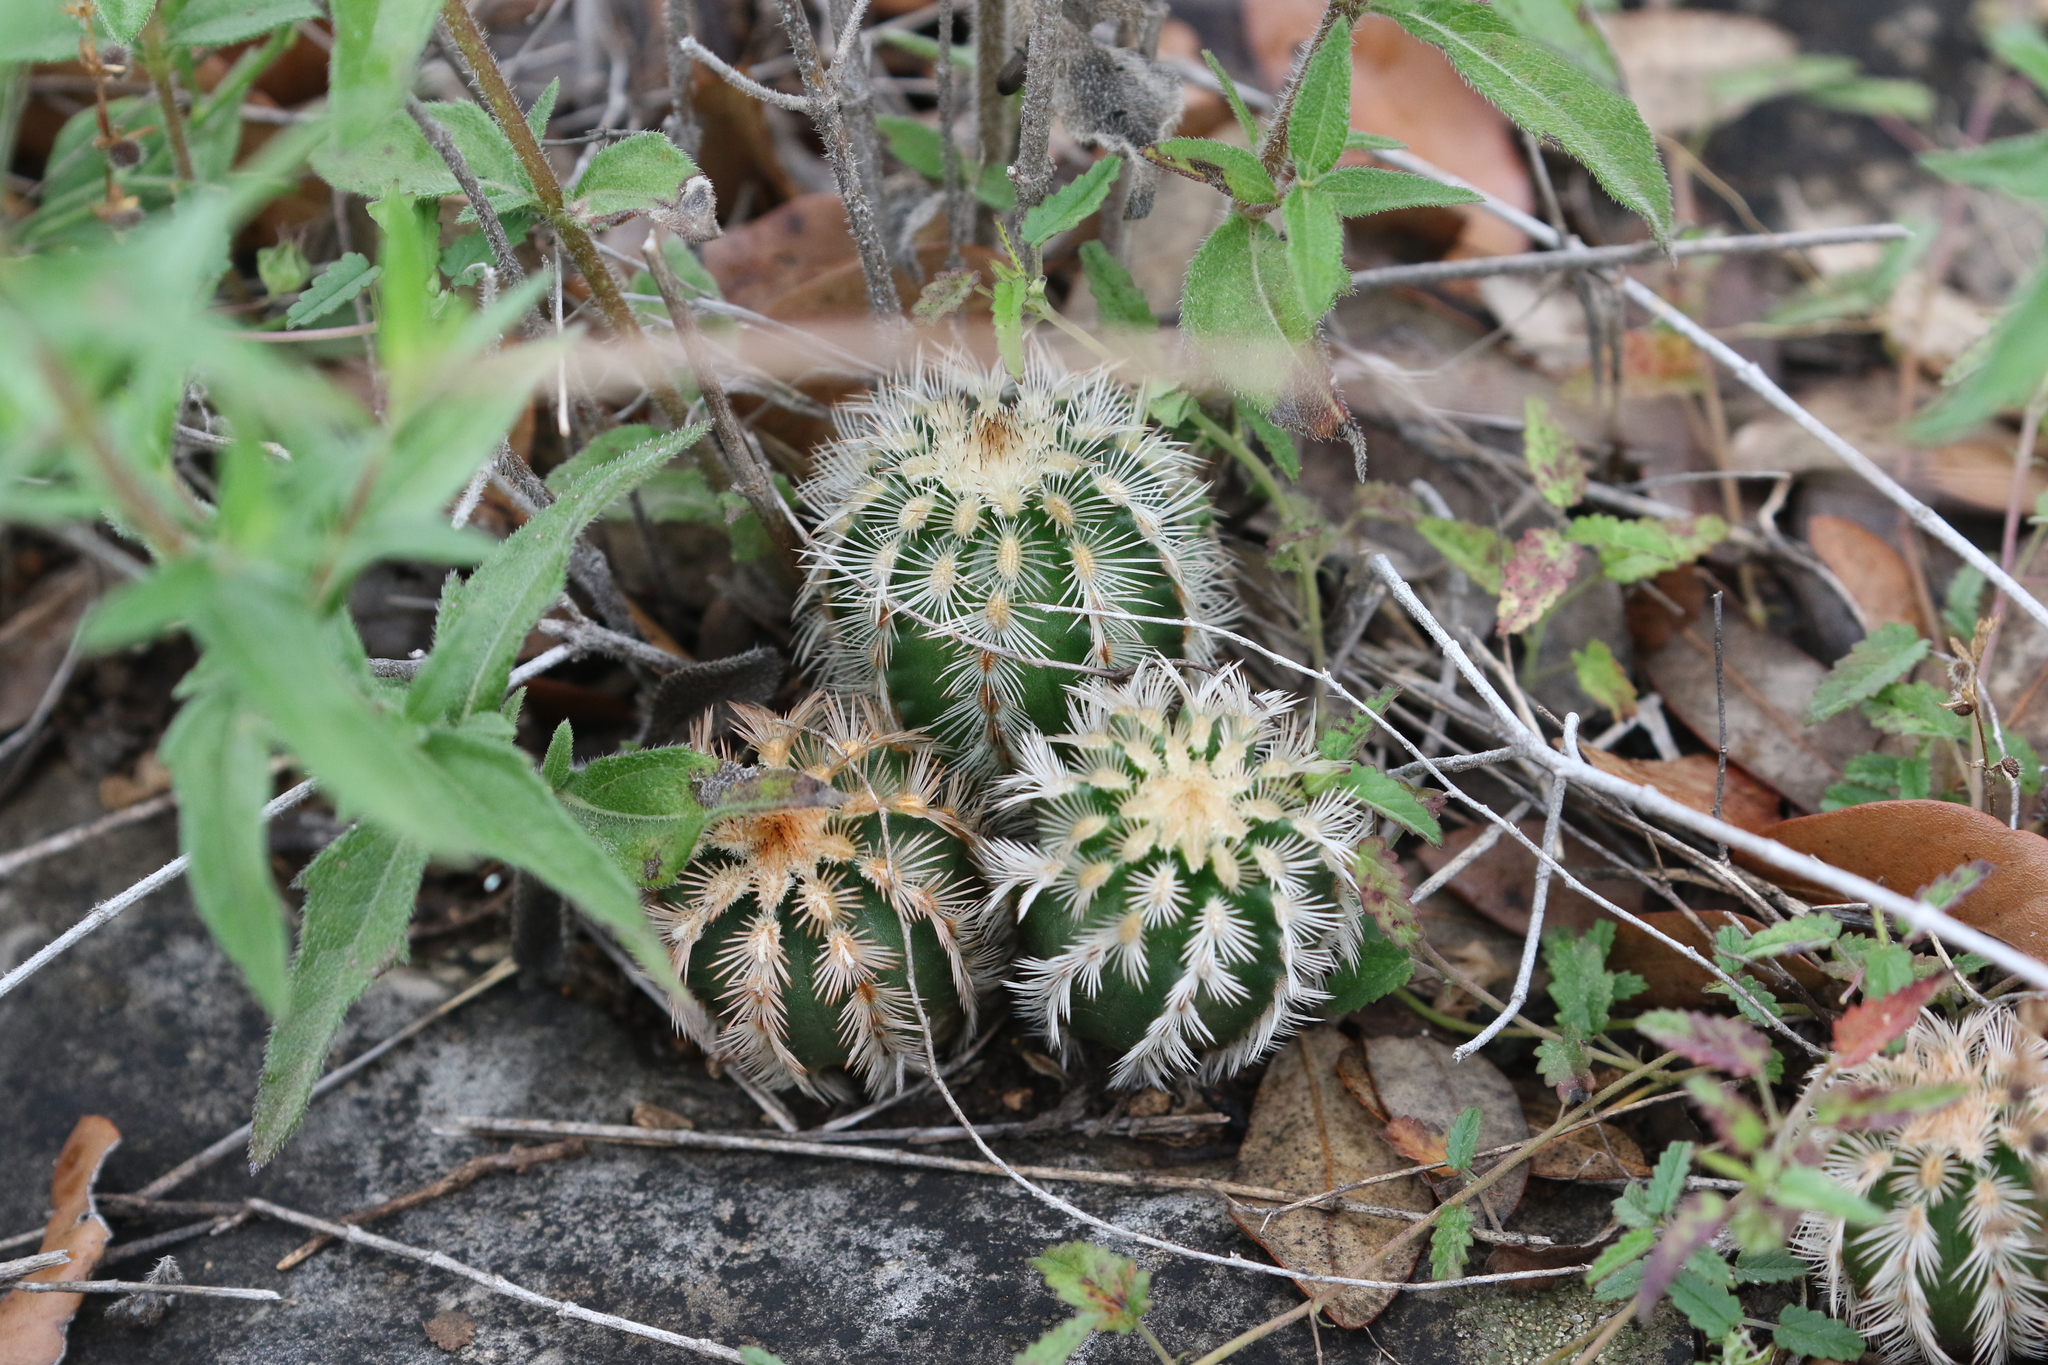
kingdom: Plantae
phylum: Tracheophyta
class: Magnoliopsida
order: Caryophyllales
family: Cactaceae
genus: Echinocereus
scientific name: Echinocereus reichenbachii
